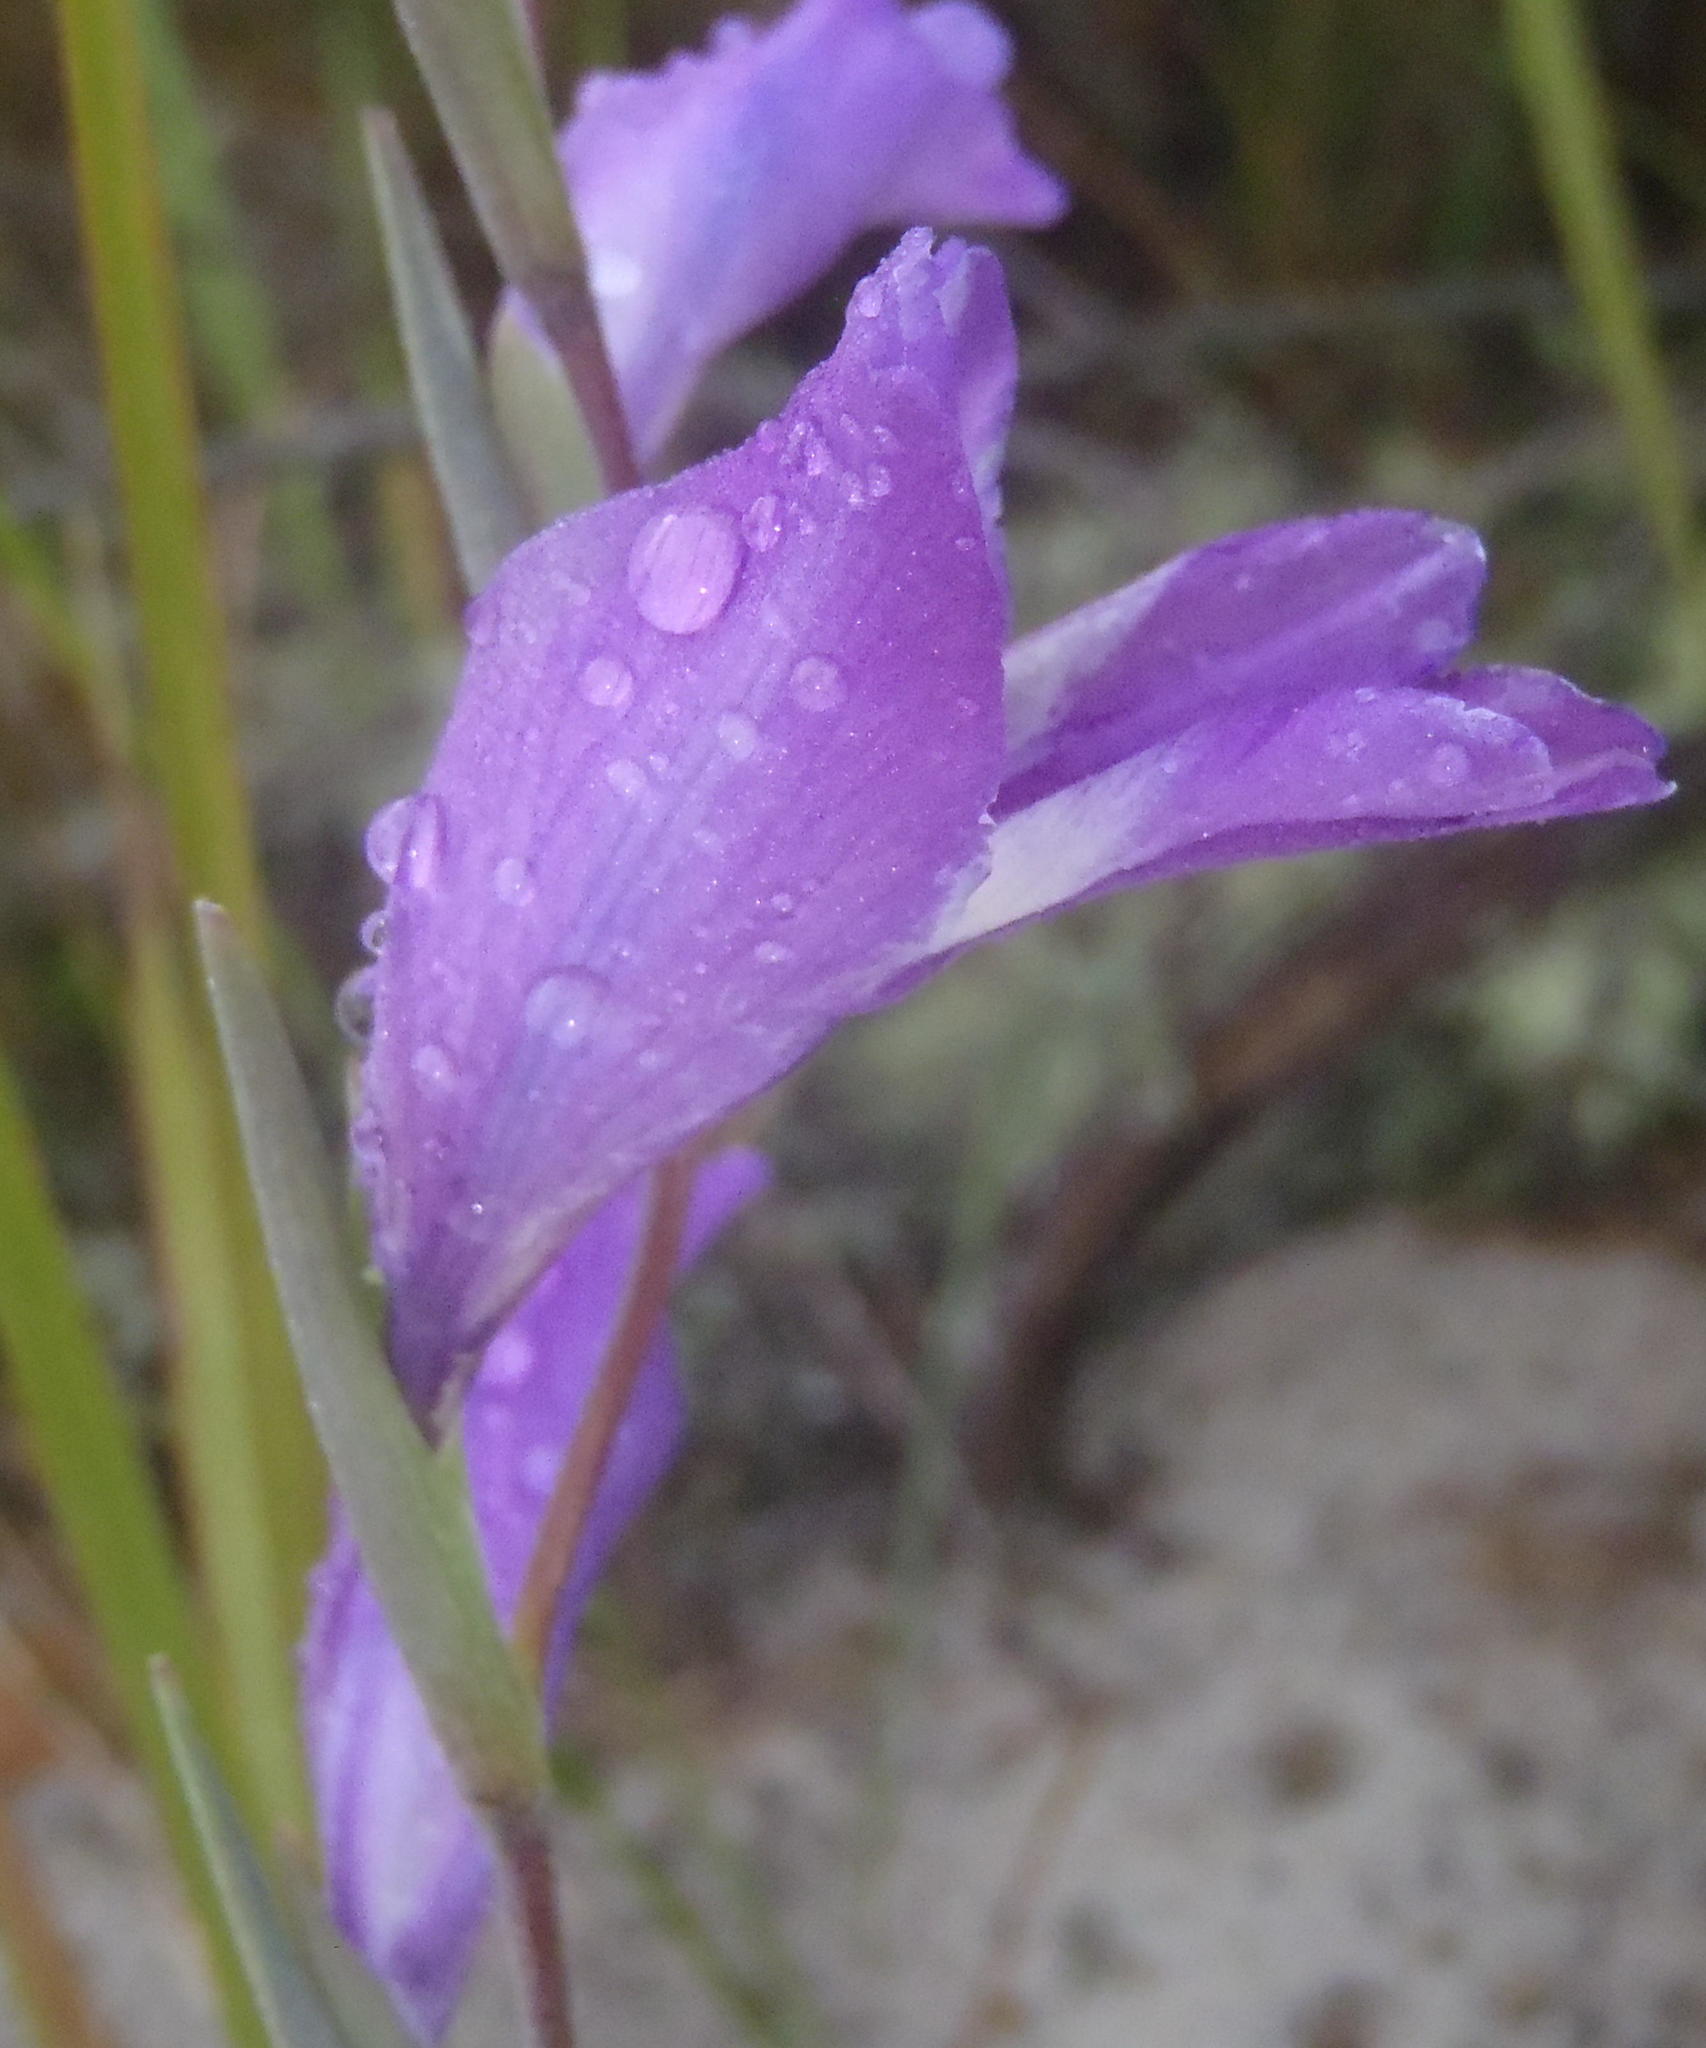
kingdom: Plantae
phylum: Tracheophyta
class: Liliopsida
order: Asparagales
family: Iridaceae
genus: Gladiolus
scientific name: Gladiolus carinatus
